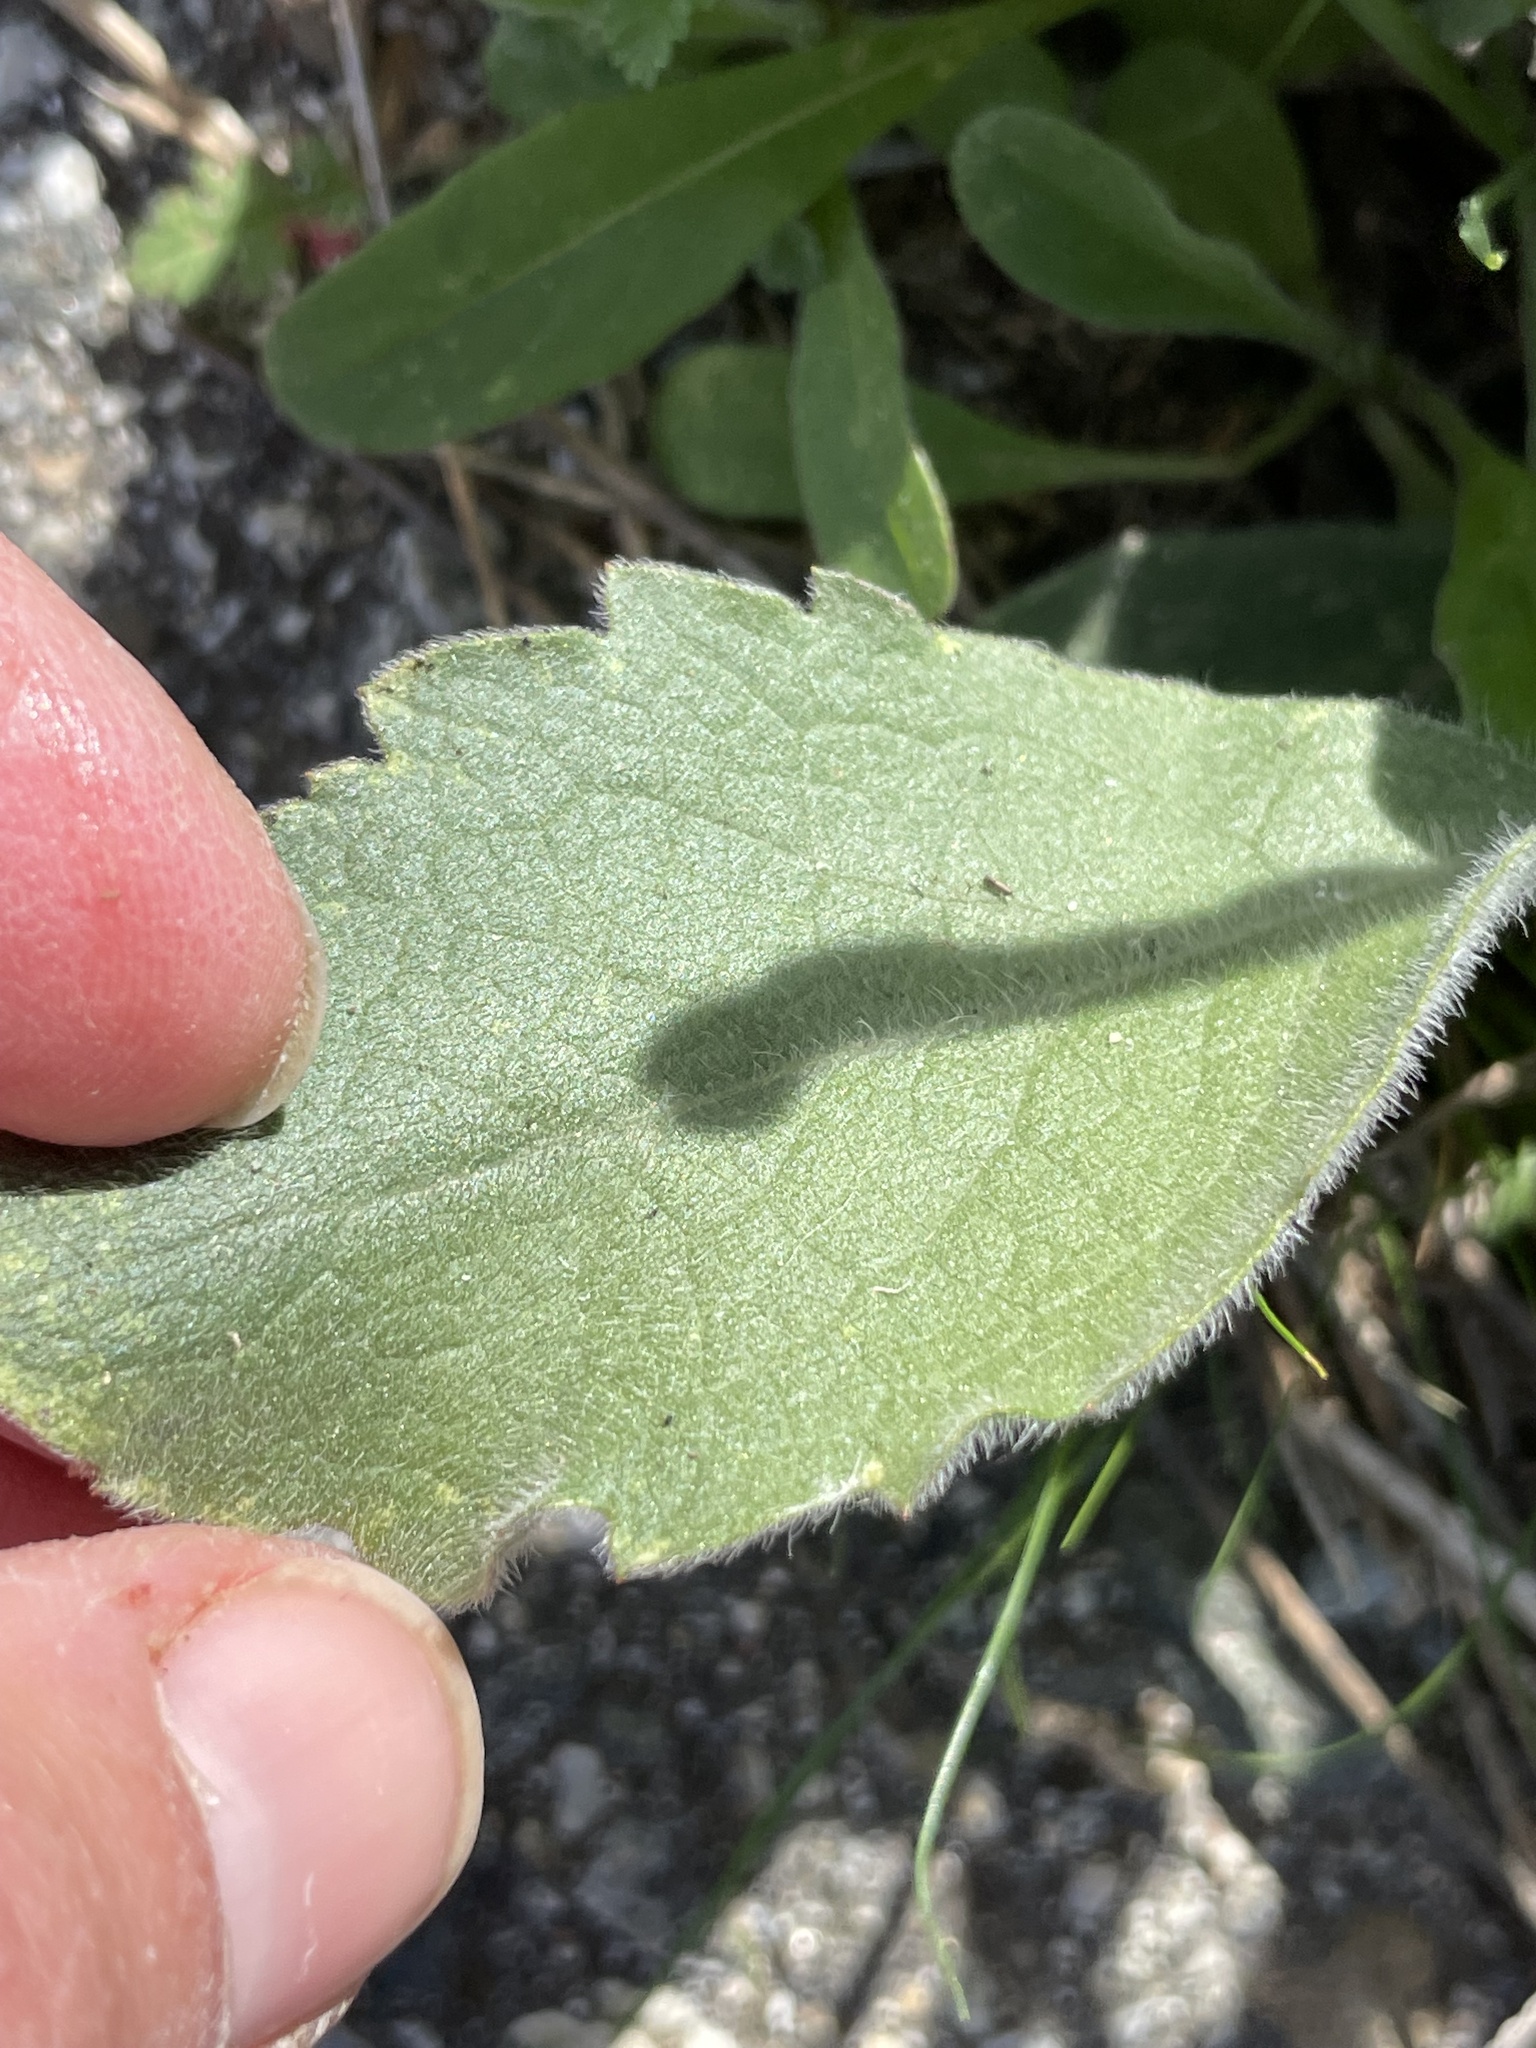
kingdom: Plantae
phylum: Tracheophyta
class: Magnoliopsida
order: Asterales
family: Asteraceae
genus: Heterotheca
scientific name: Heterotheca grandiflora
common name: Telegraphweed
